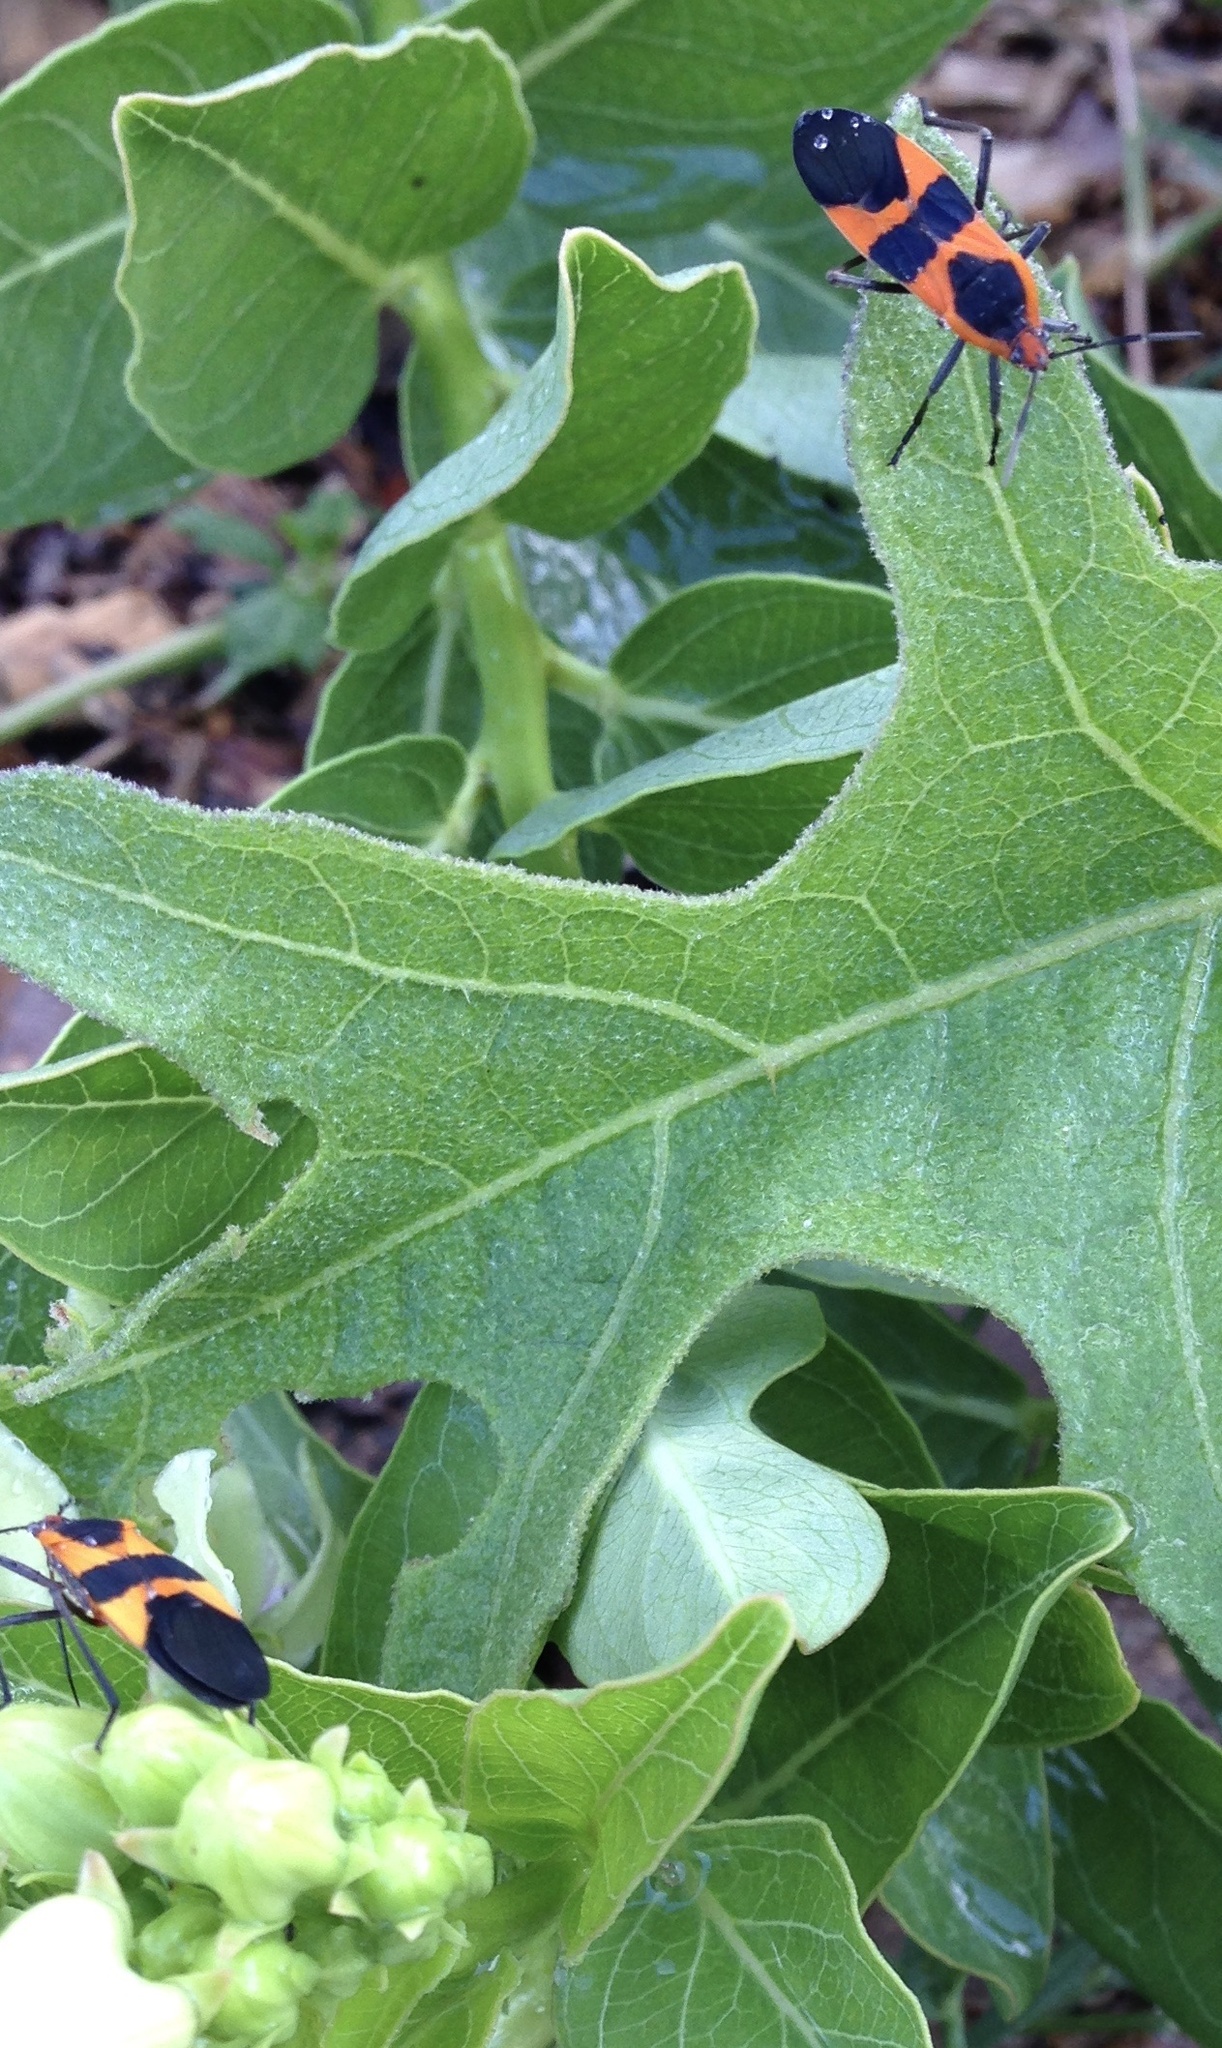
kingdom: Animalia
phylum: Arthropoda
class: Insecta
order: Hemiptera
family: Lygaeidae
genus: Oncopeltus
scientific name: Oncopeltus fasciatus
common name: Large milkweed bug
